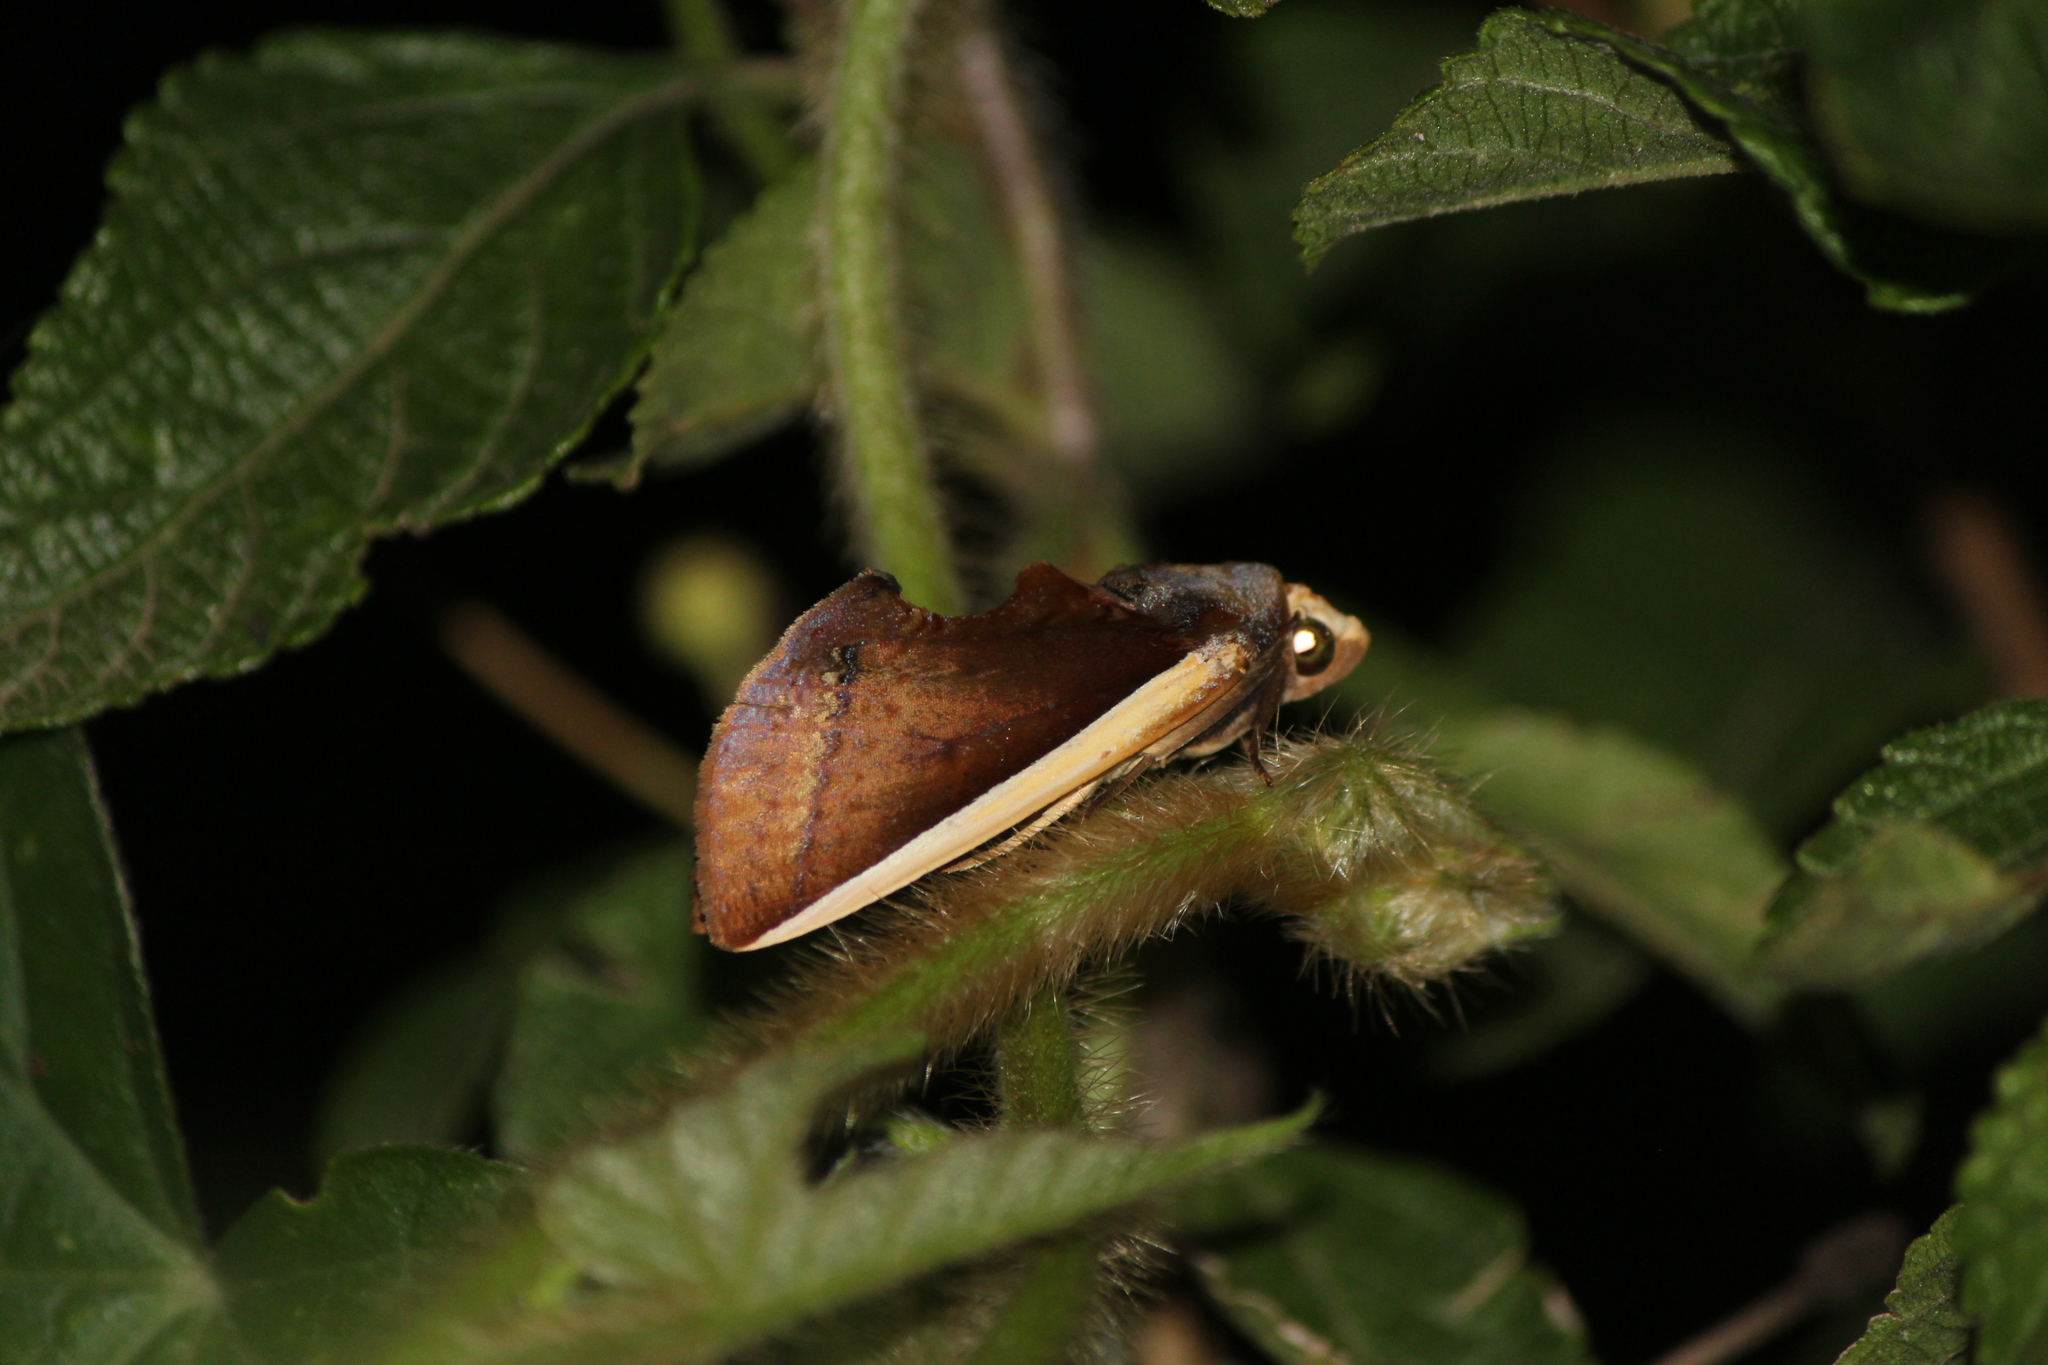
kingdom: Animalia
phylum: Arthropoda
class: Insecta
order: Lepidoptera
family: Erebidae
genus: Gonodonta
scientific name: Gonodonta pyrgo
